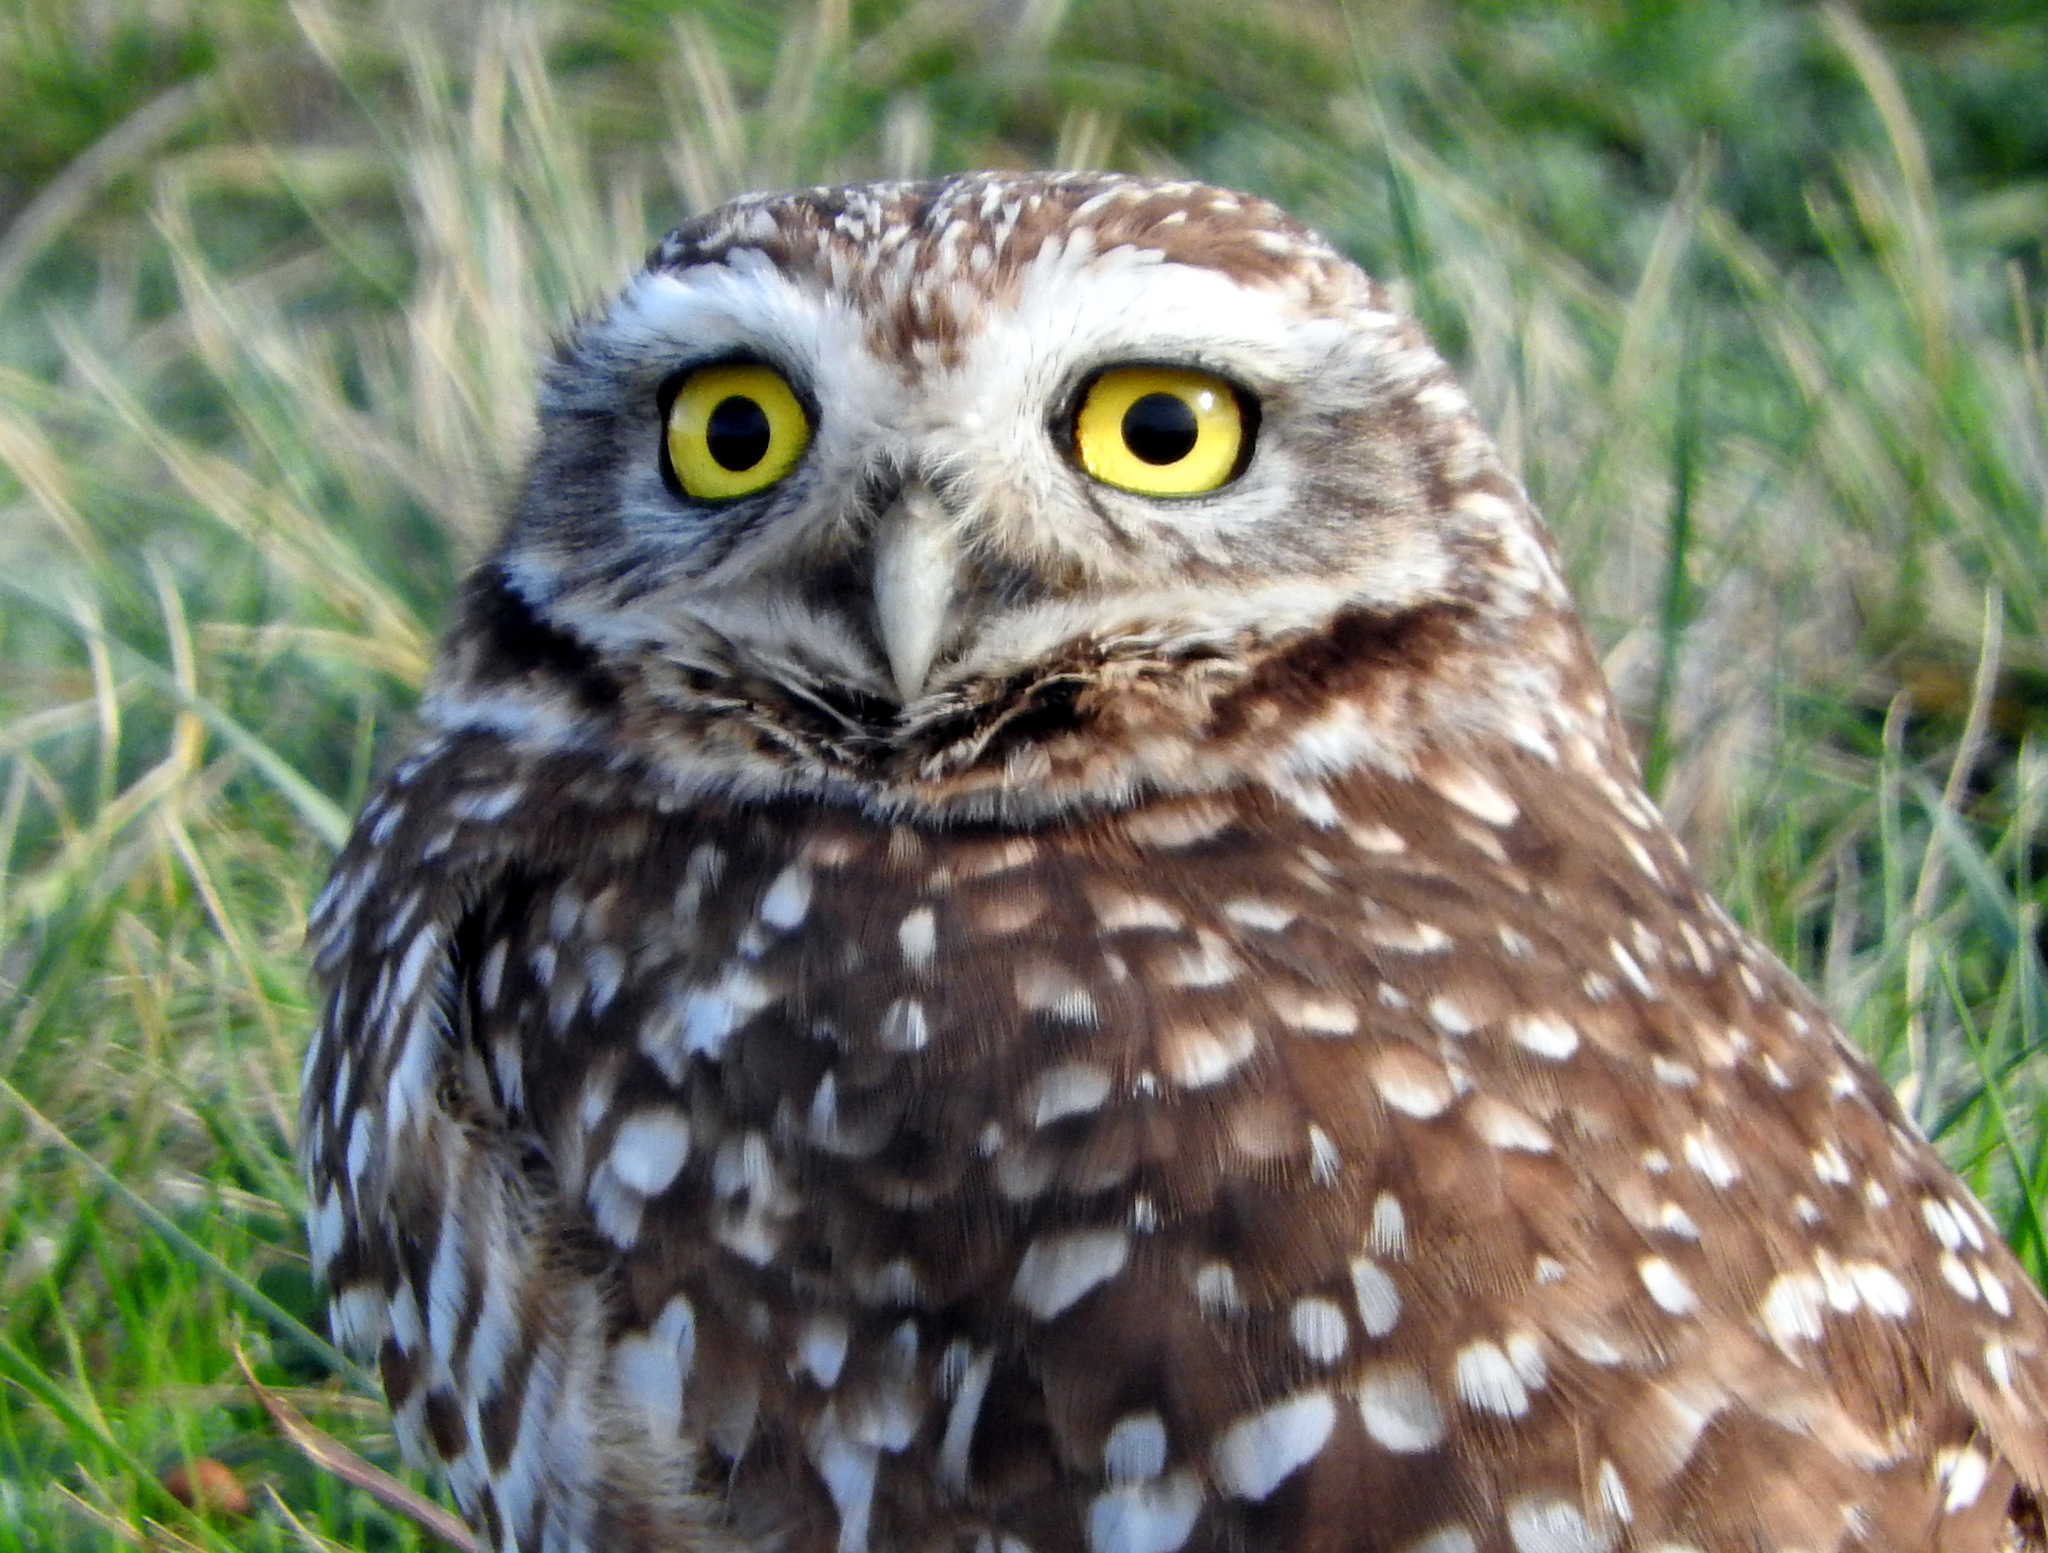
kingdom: Animalia
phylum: Chordata
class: Aves
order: Strigiformes
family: Strigidae
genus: Athene
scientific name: Athene cunicularia
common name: Burrowing owl
